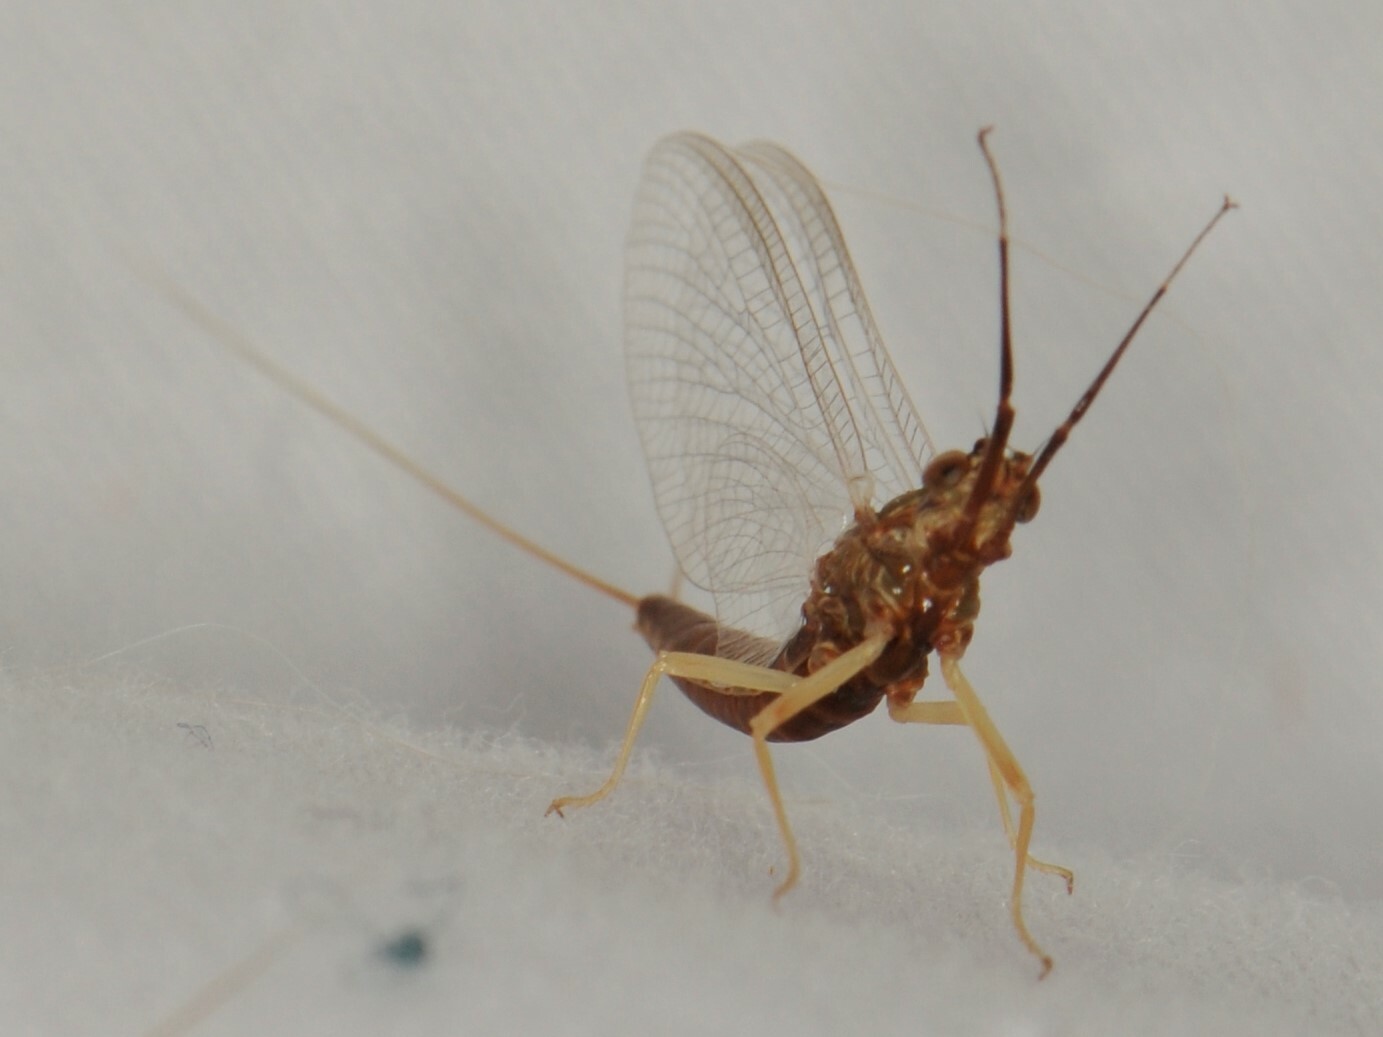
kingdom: Animalia
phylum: Arthropoda
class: Insecta
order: Ephemeroptera
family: Isonychiidae
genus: Isonychia
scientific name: Isonychia
